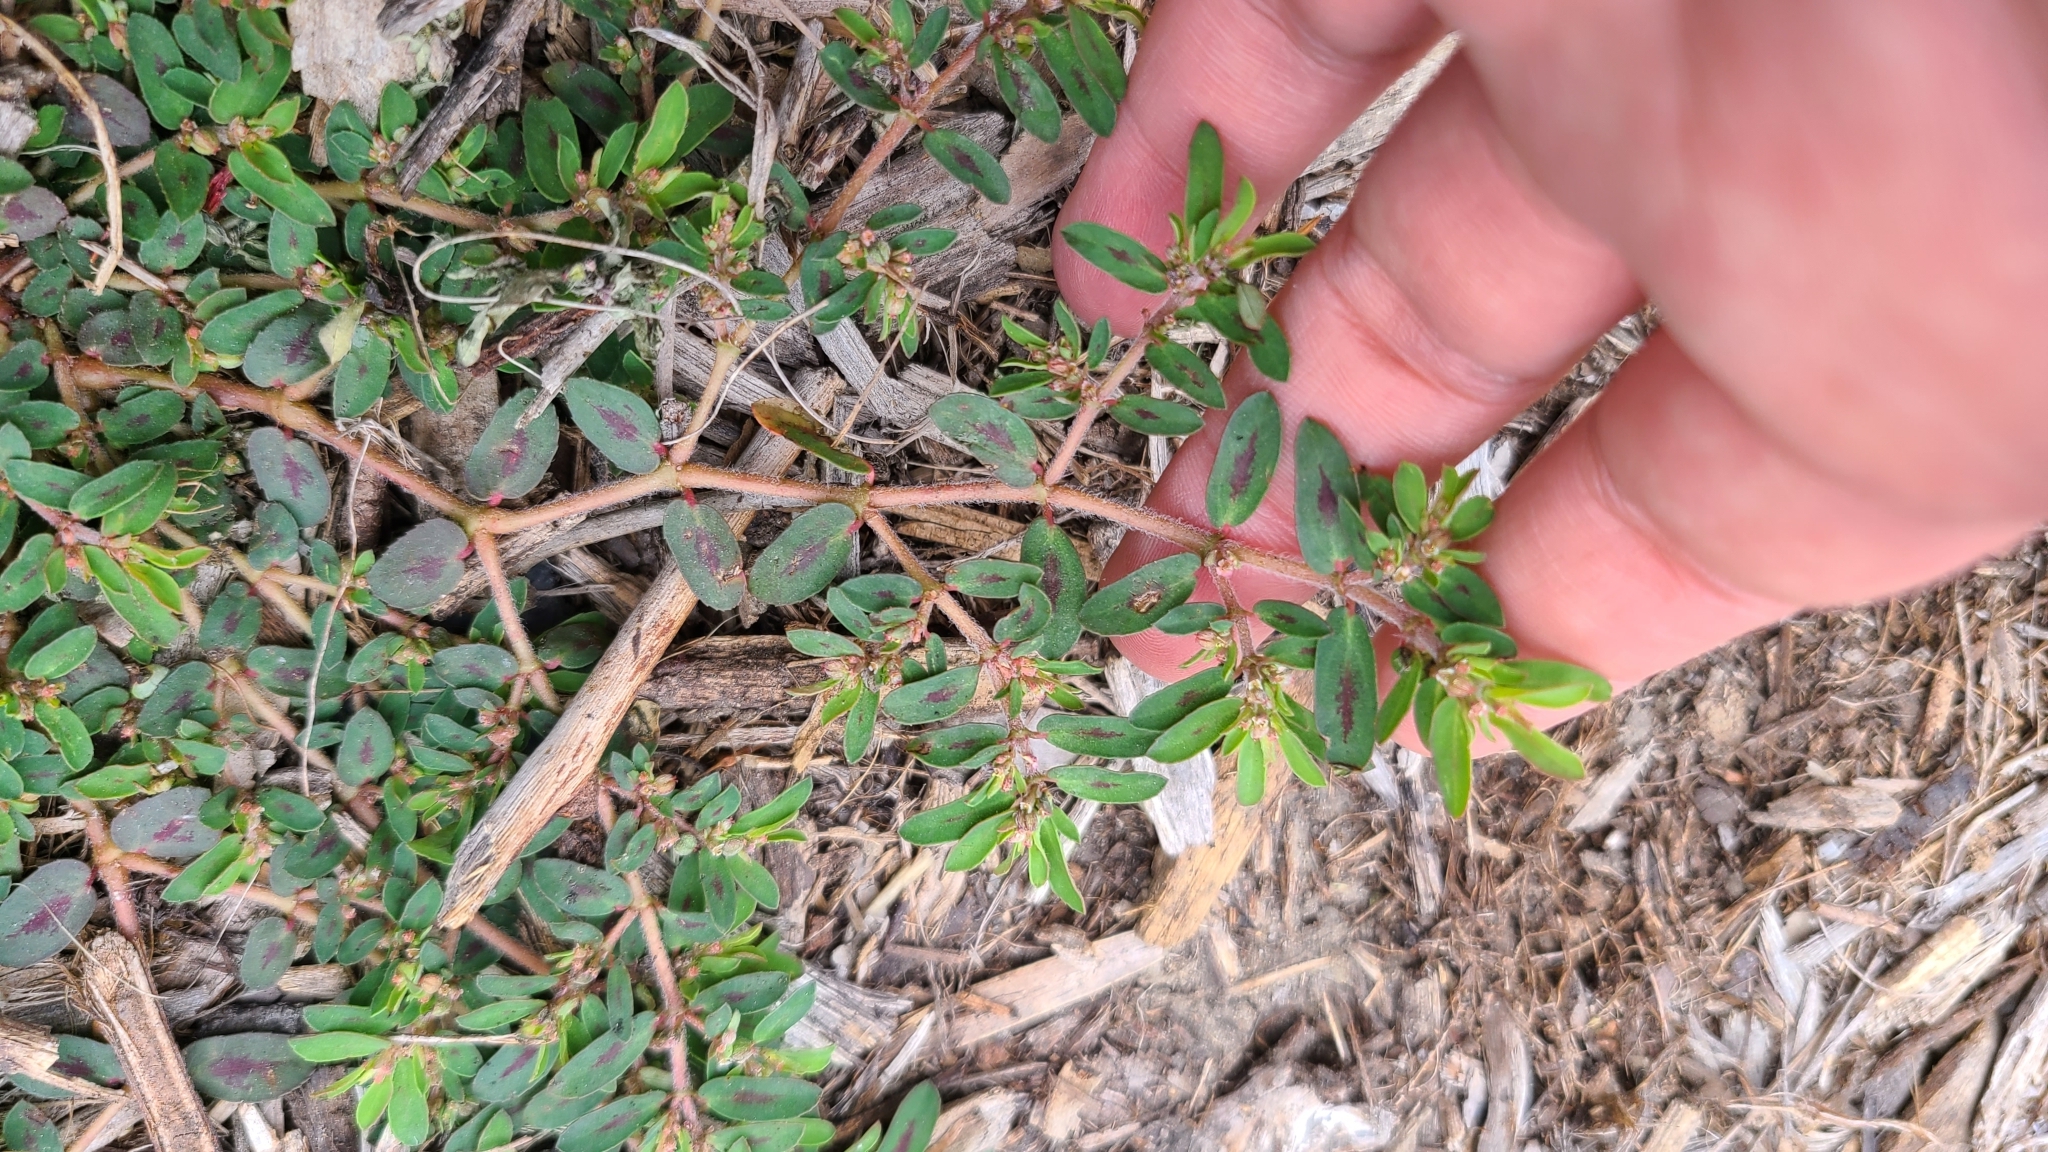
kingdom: Plantae
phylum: Tracheophyta
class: Magnoliopsida
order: Malpighiales
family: Euphorbiaceae
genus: Euphorbia
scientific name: Euphorbia maculata
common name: Spotted spurge
